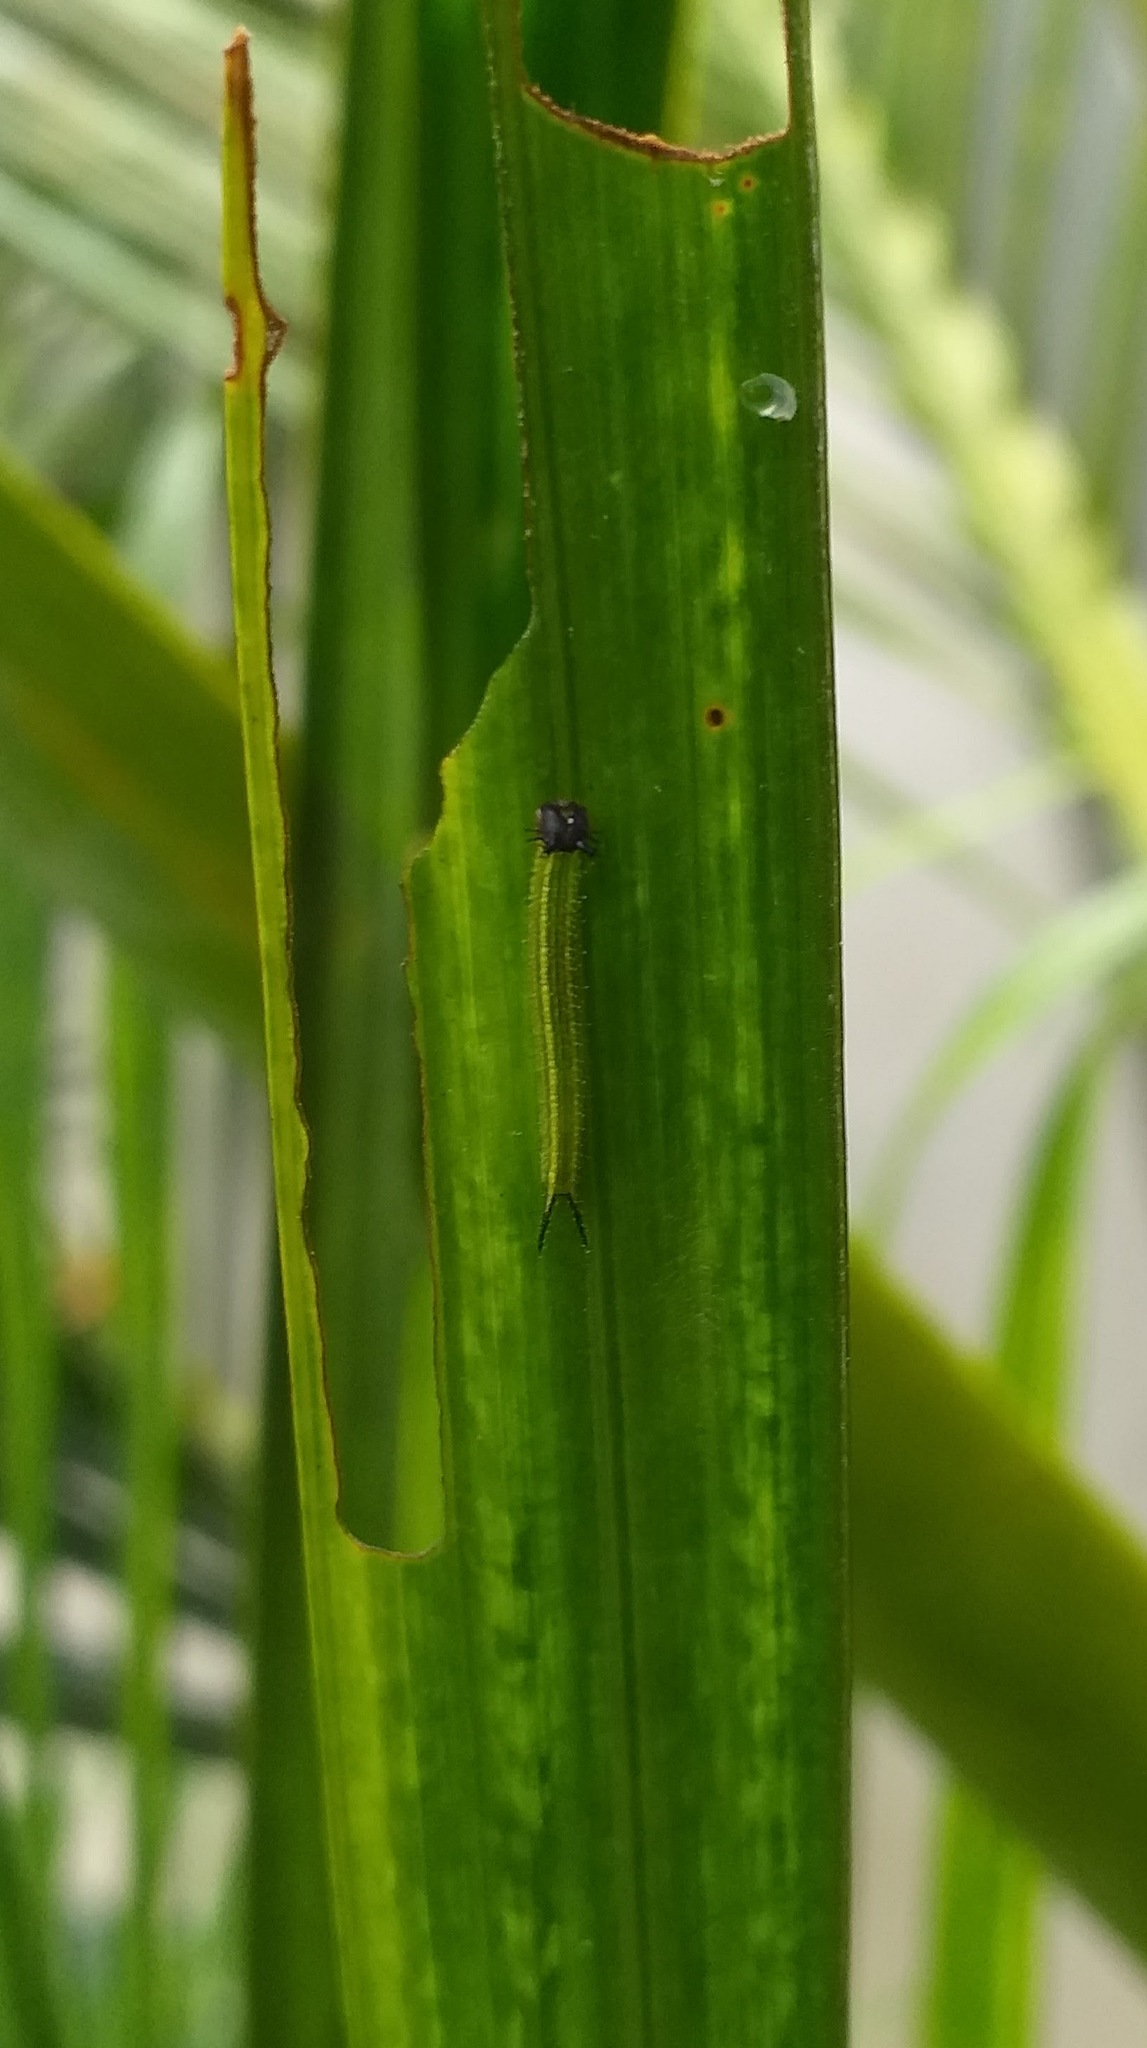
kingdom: Animalia
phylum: Arthropoda
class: Insecta
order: Lepidoptera
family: Nymphalidae
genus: Elymnias
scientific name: Elymnias caudata
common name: Tailed palmfly
